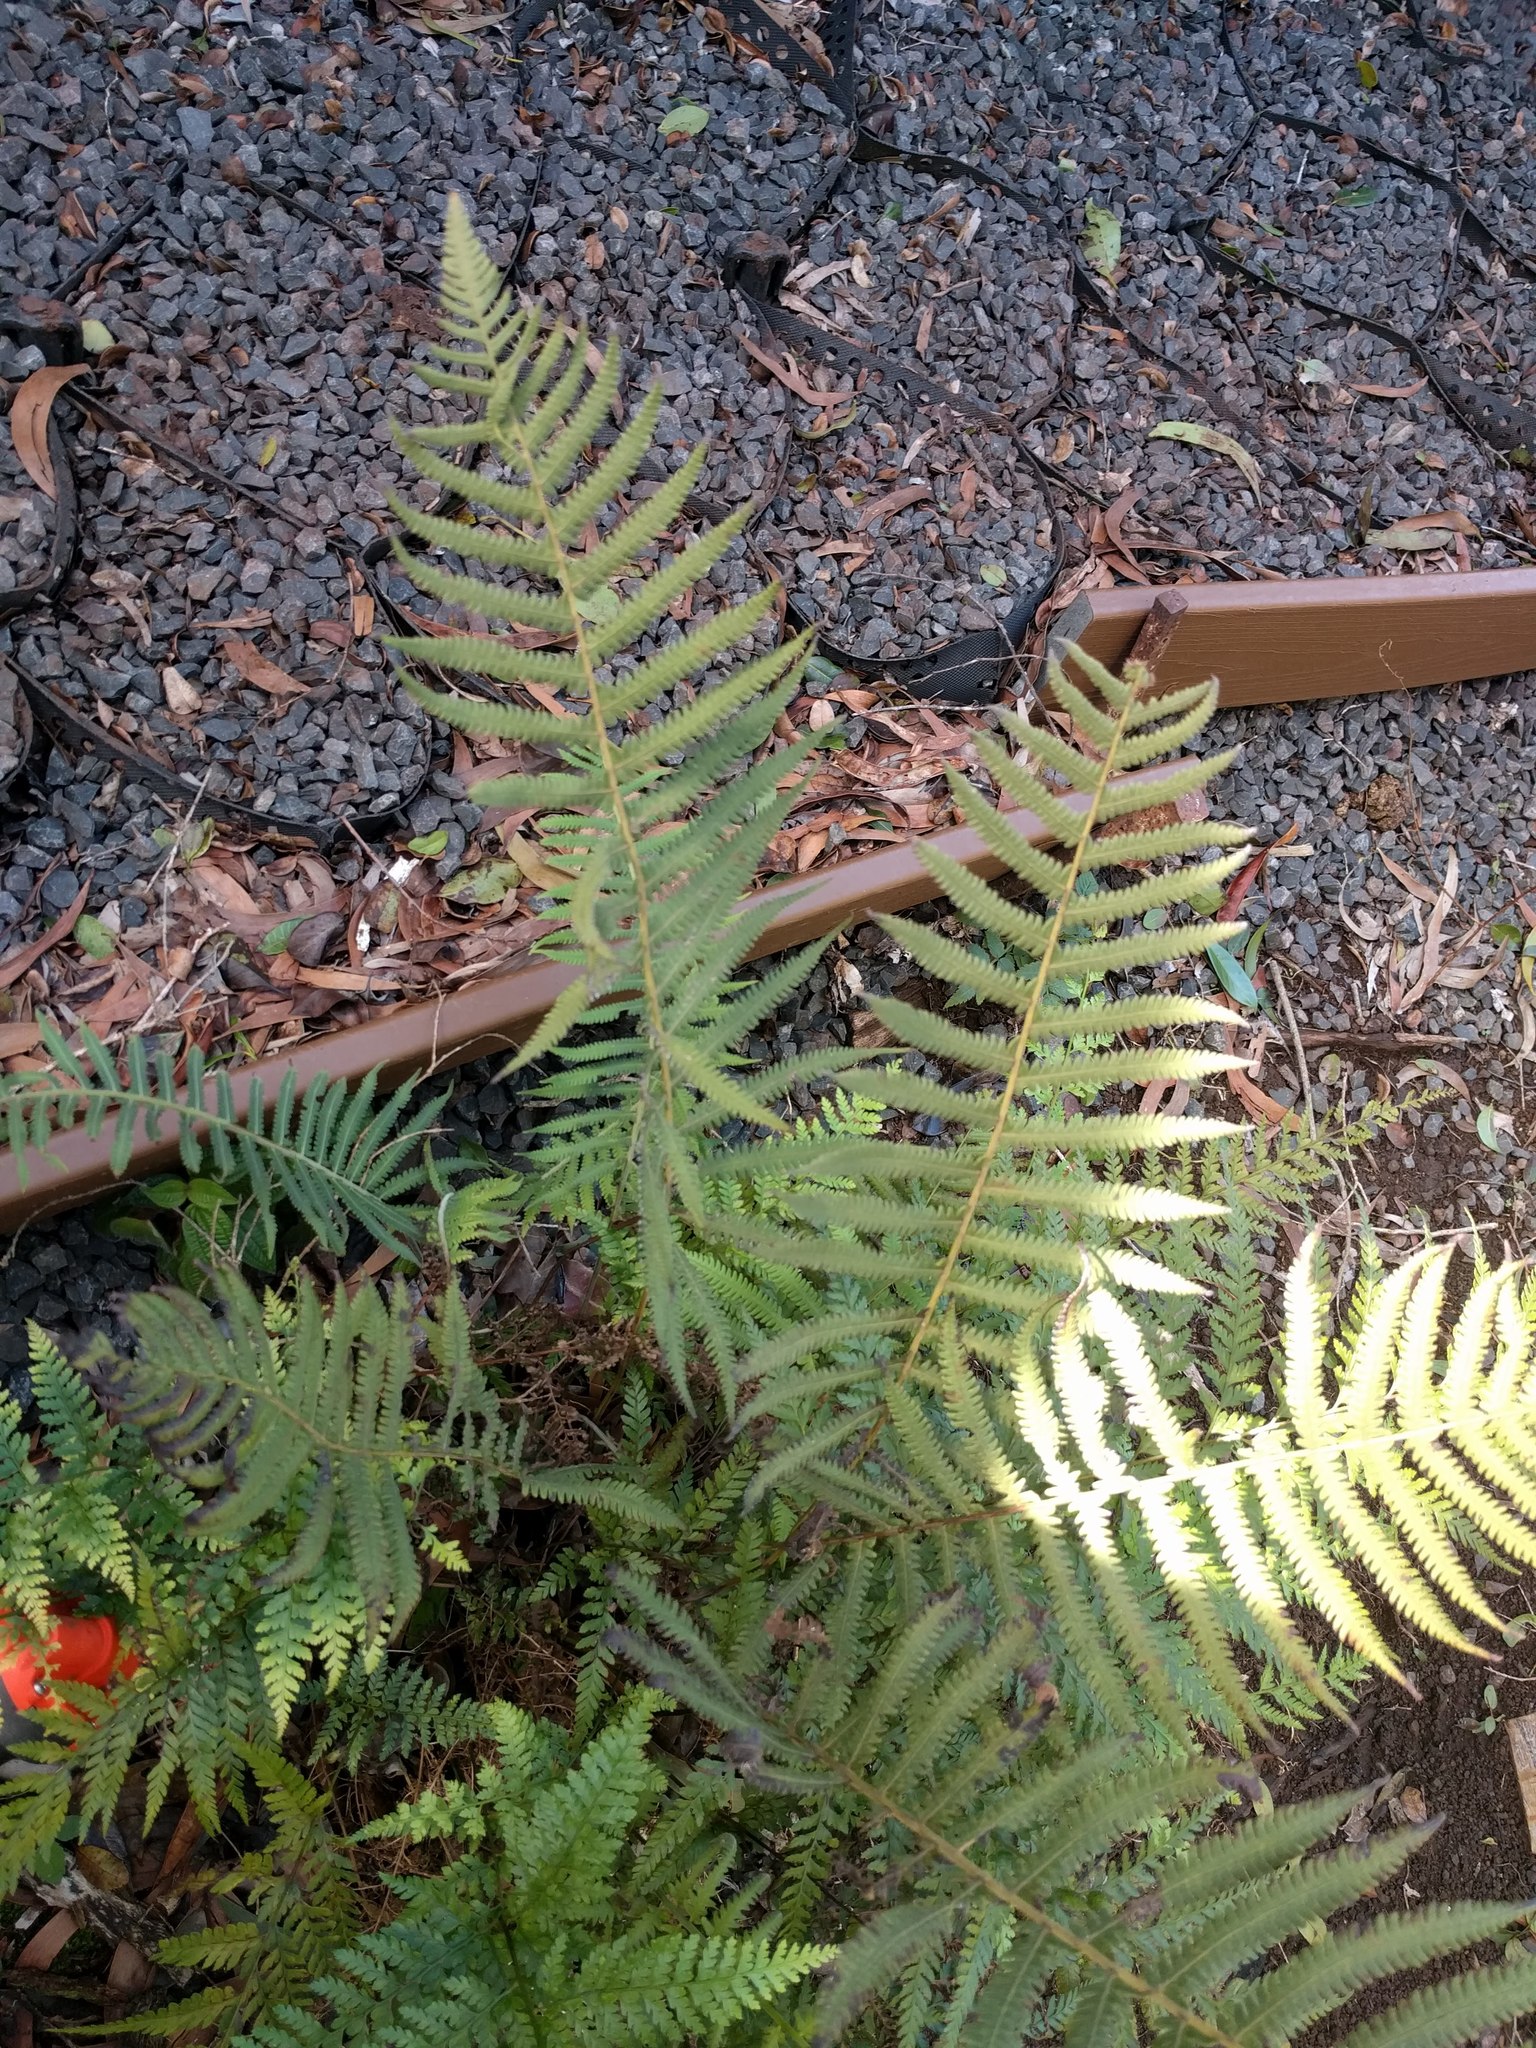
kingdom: Plantae
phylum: Tracheophyta
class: Polypodiopsida
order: Polypodiales
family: Thelypteridaceae
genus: Christella
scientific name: Christella parasitica
